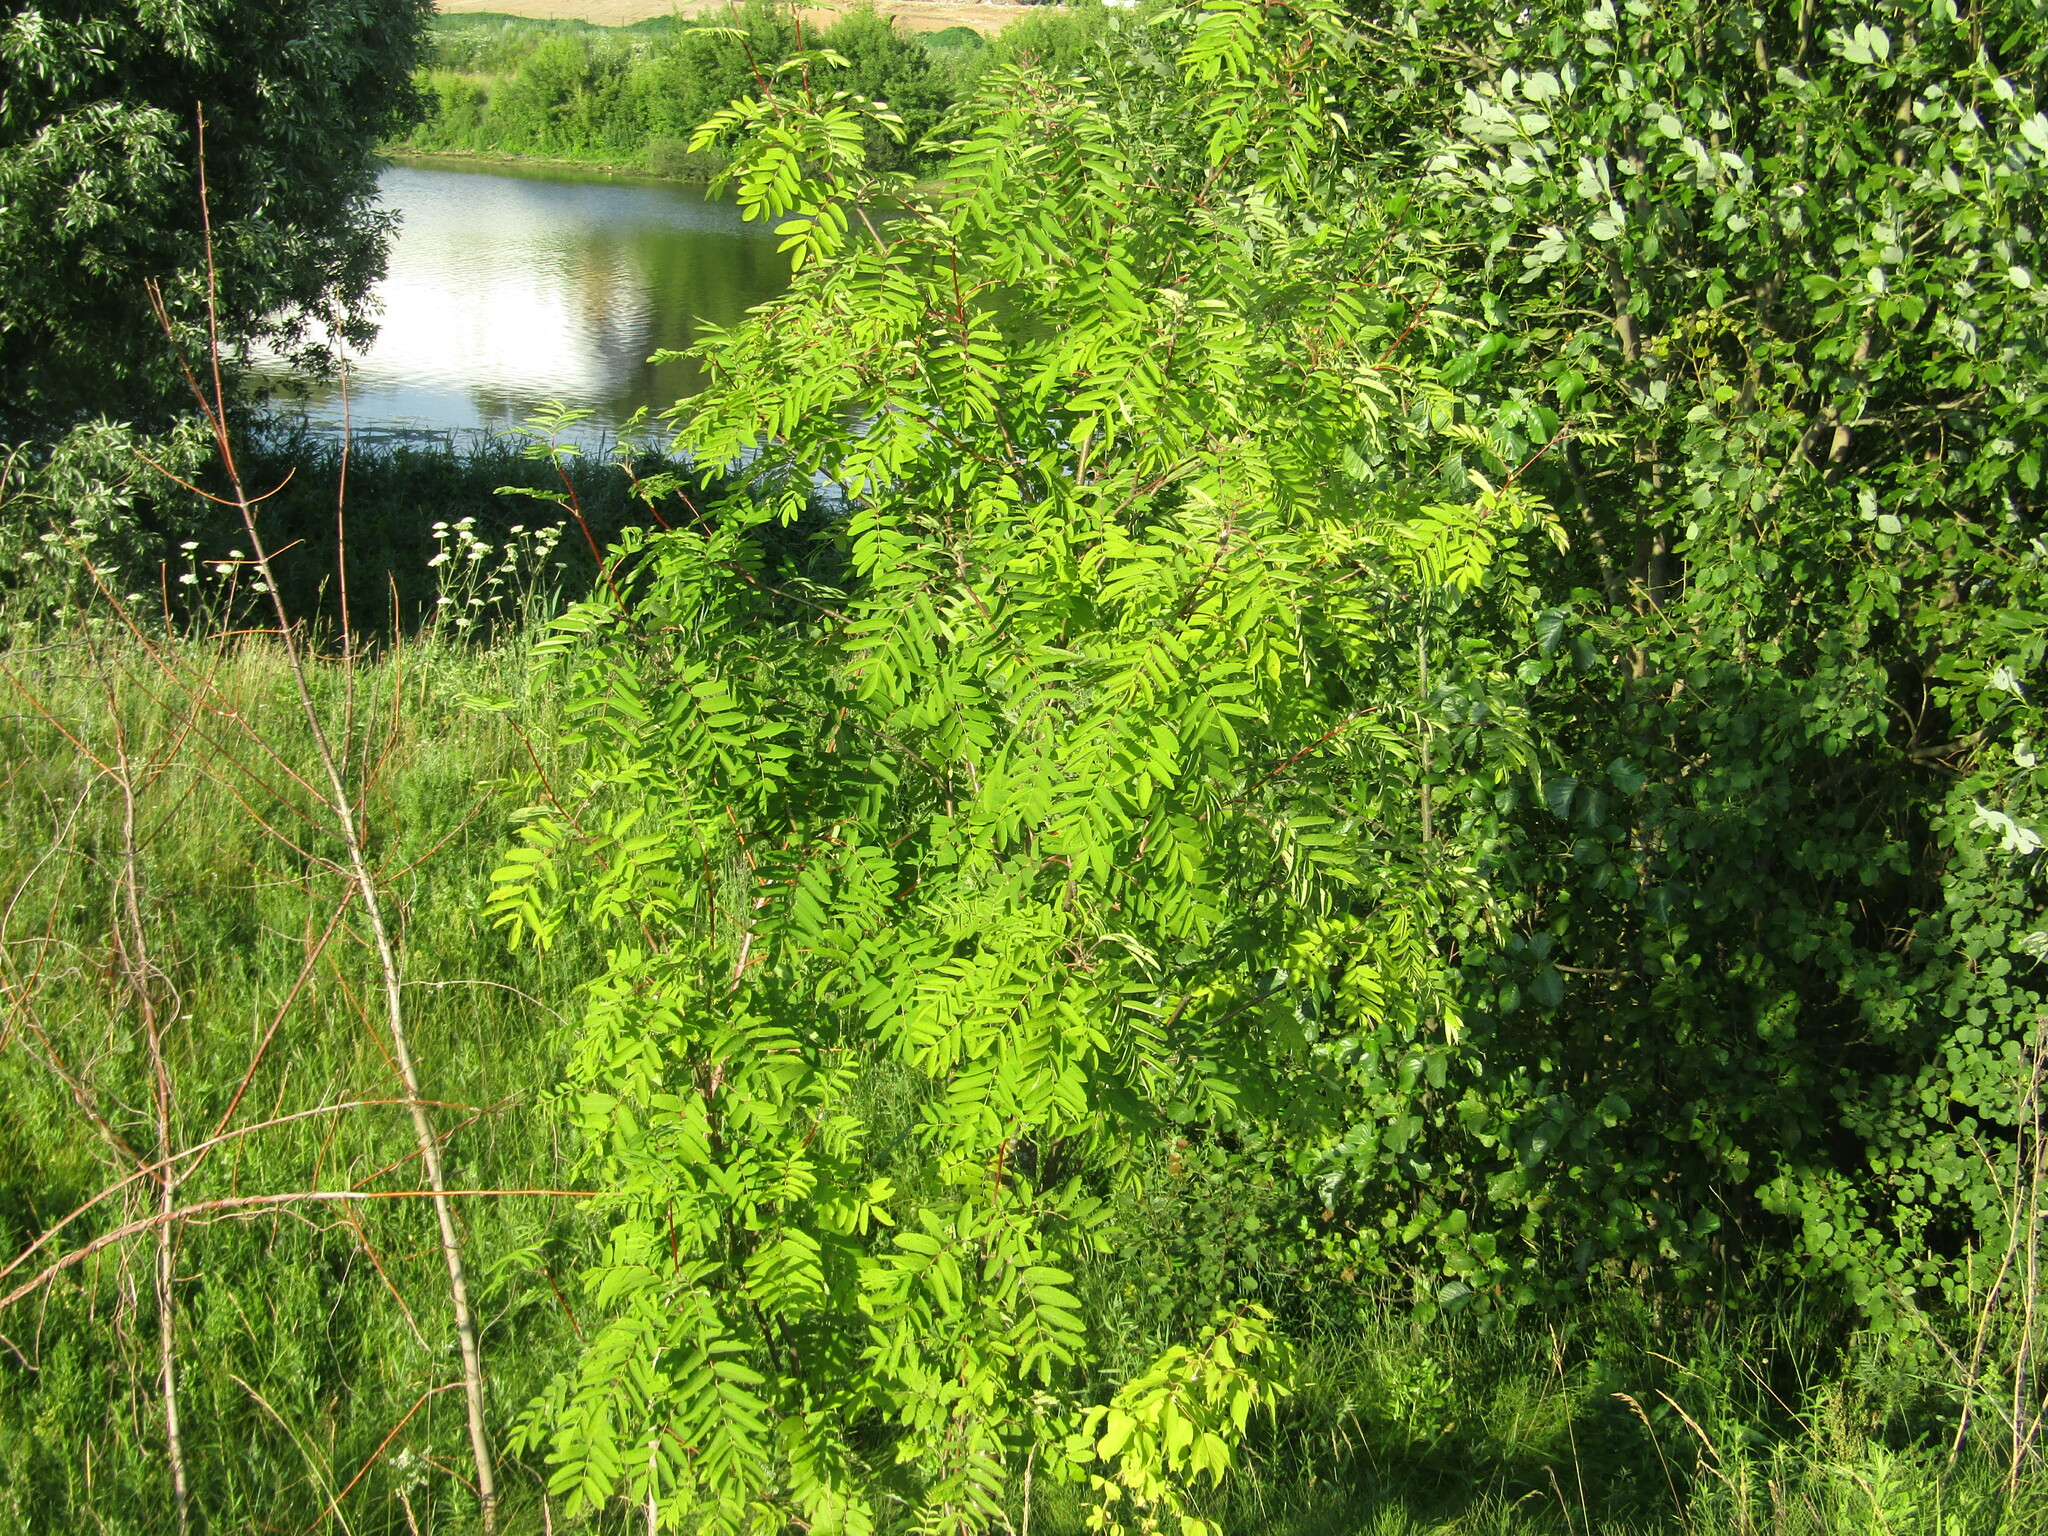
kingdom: Plantae
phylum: Tracheophyta
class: Magnoliopsida
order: Rosales
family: Rosaceae
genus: Sorbus
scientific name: Sorbus aucuparia
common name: Rowan
